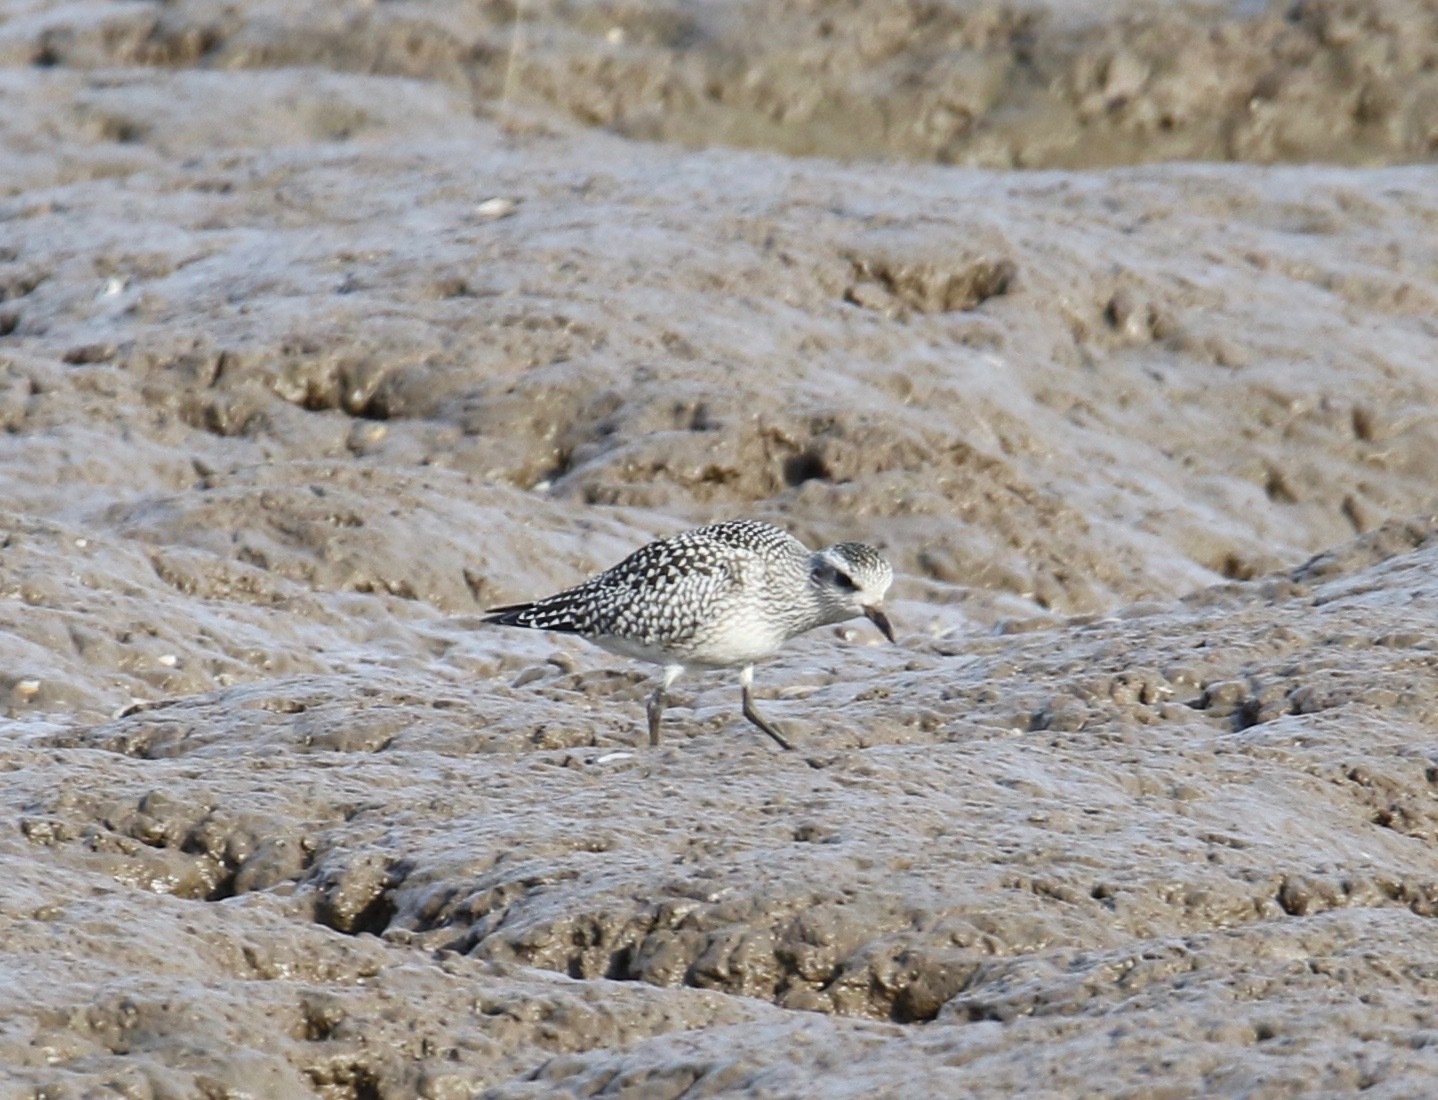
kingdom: Animalia
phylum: Chordata
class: Aves
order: Charadriiformes
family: Charadriidae
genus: Pluvialis
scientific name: Pluvialis squatarola
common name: Grey plover
